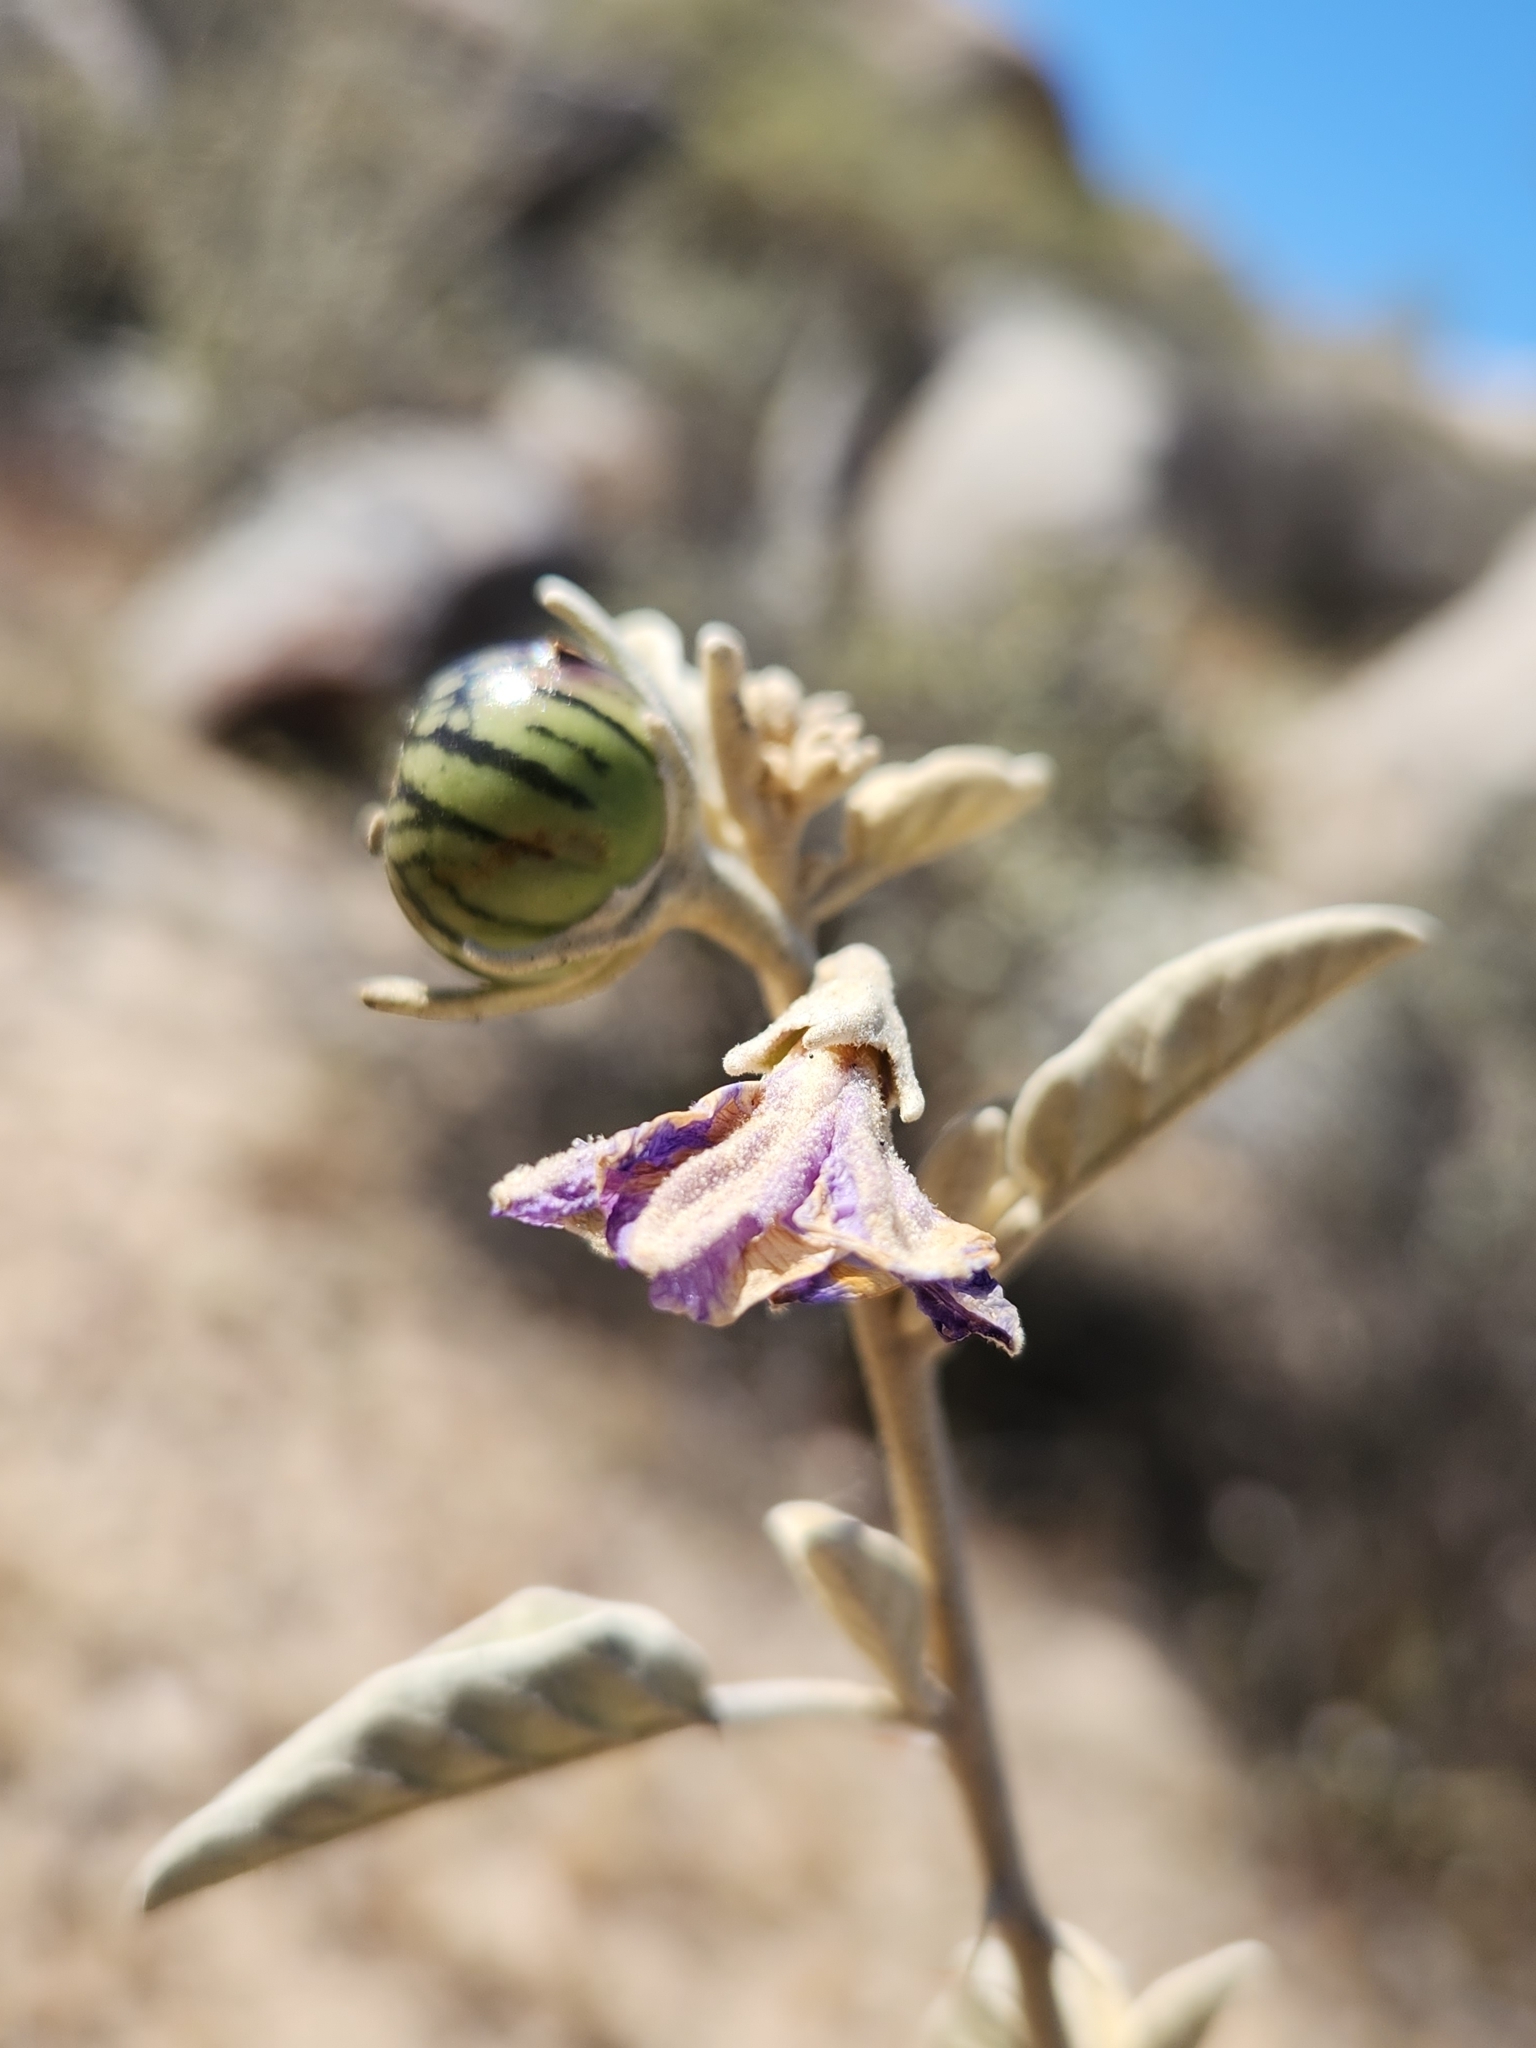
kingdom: Plantae
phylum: Tracheophyta
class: Magnoliopsida
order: Solanales
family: Solanaceae
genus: Solanum
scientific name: Solanum hindsianum
